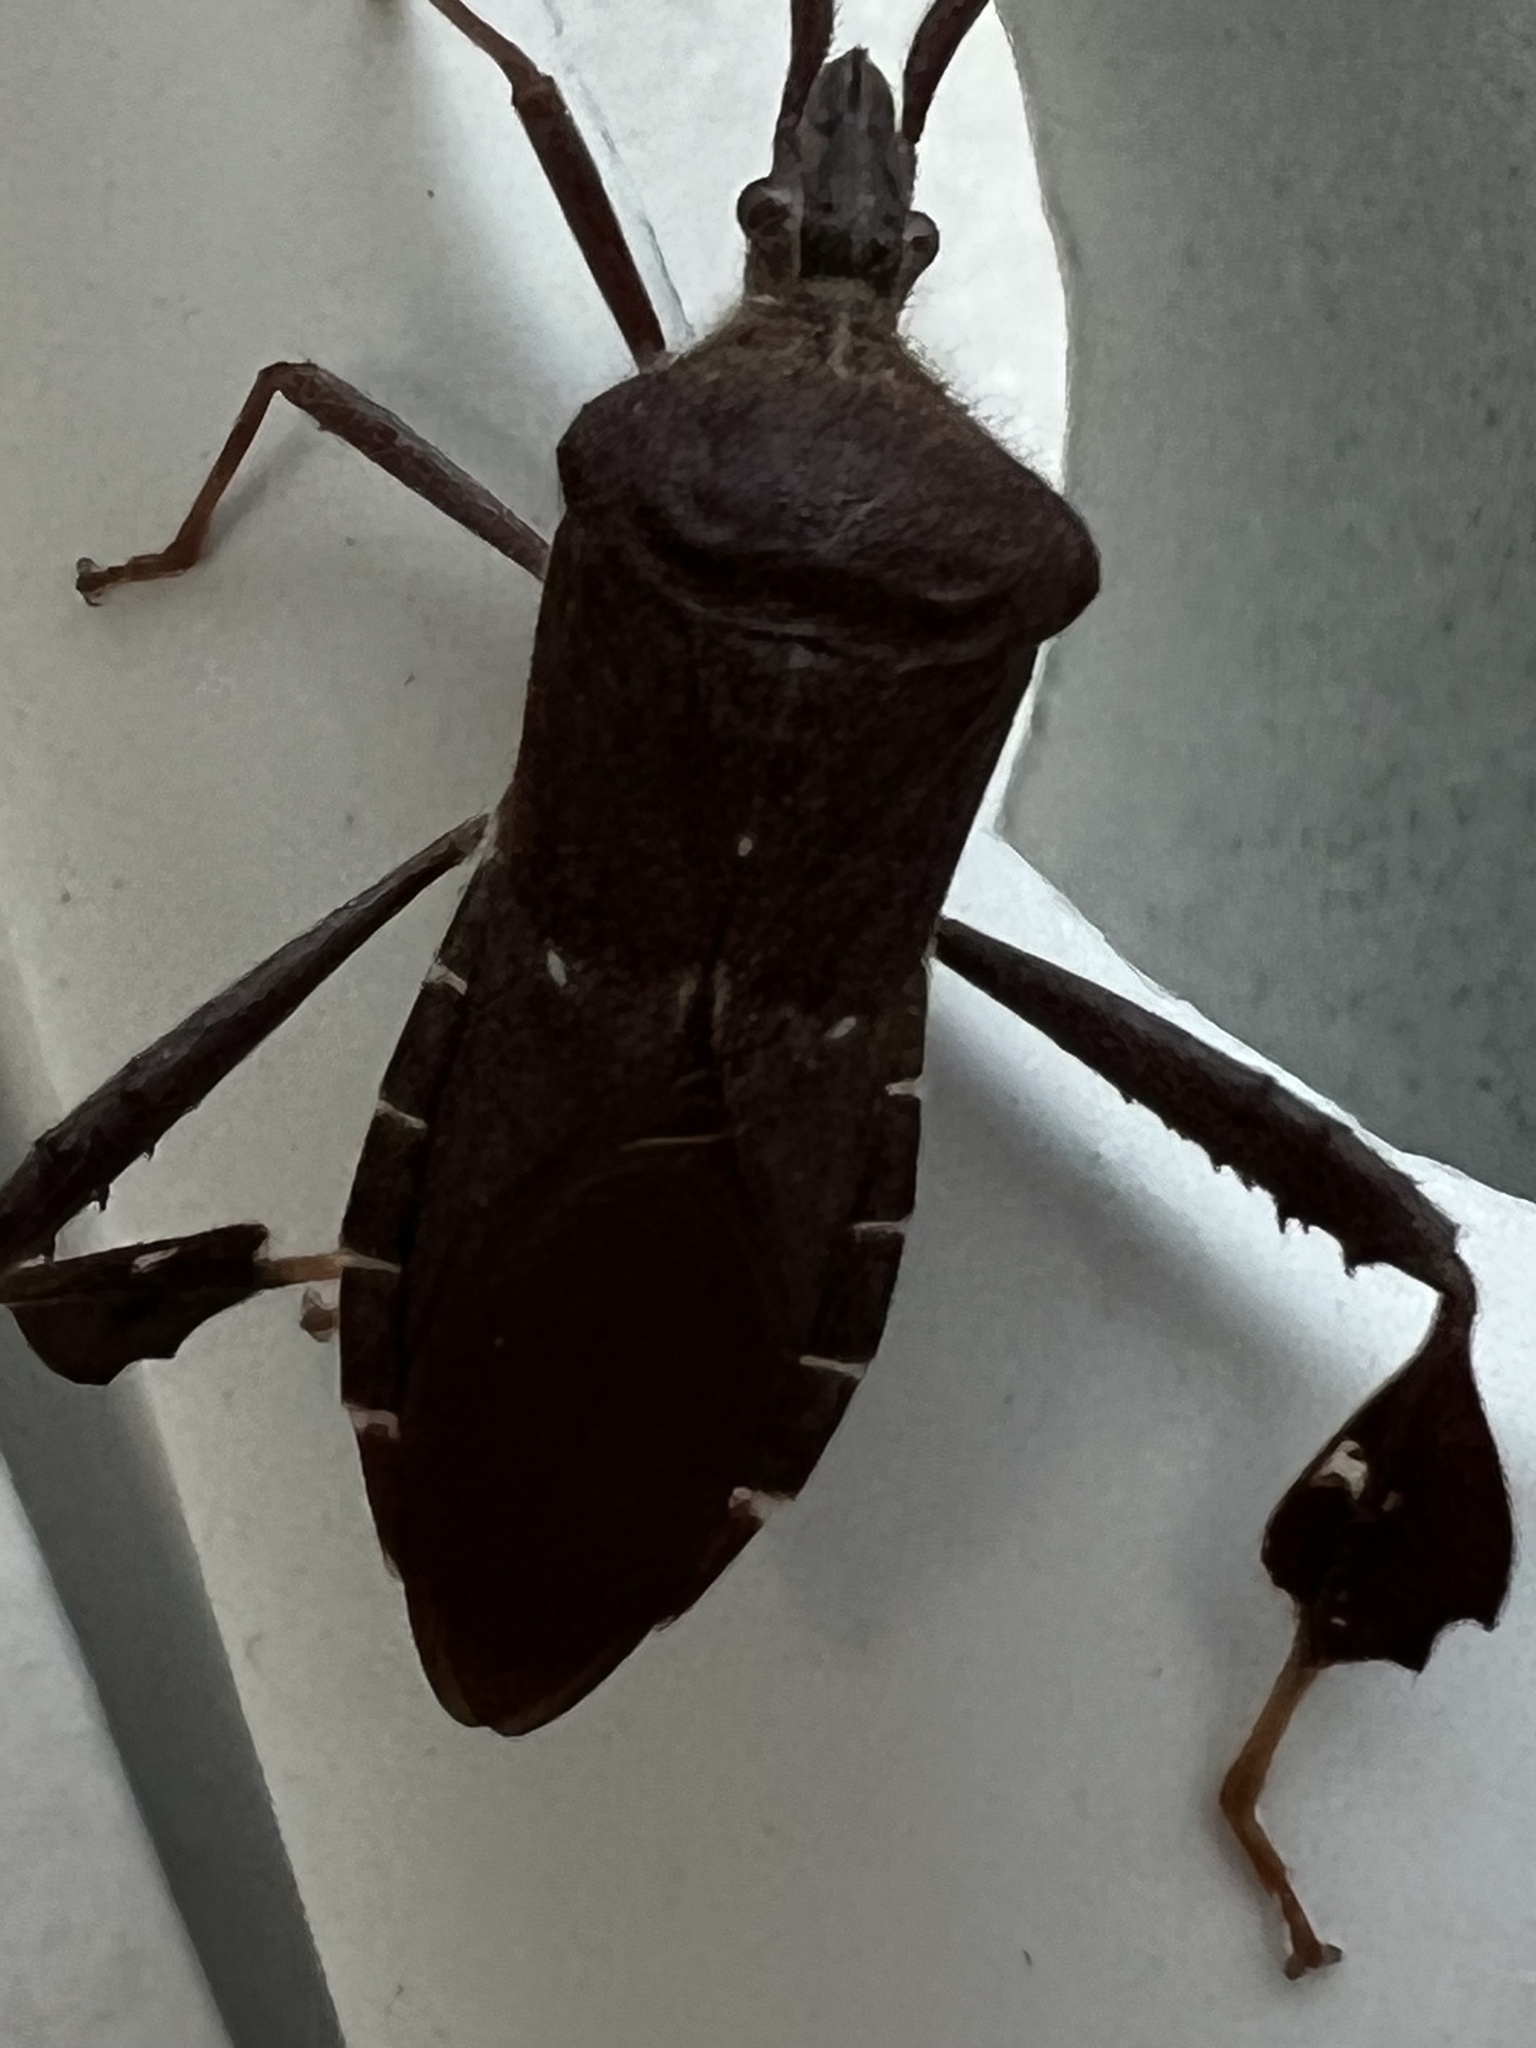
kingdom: Animalia
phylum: Arthropoda
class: Insecta
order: Hemiptera
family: Coreidae
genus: Leptoglossus
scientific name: Leptoglossus oppositus
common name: Northern leaf-footed bug
